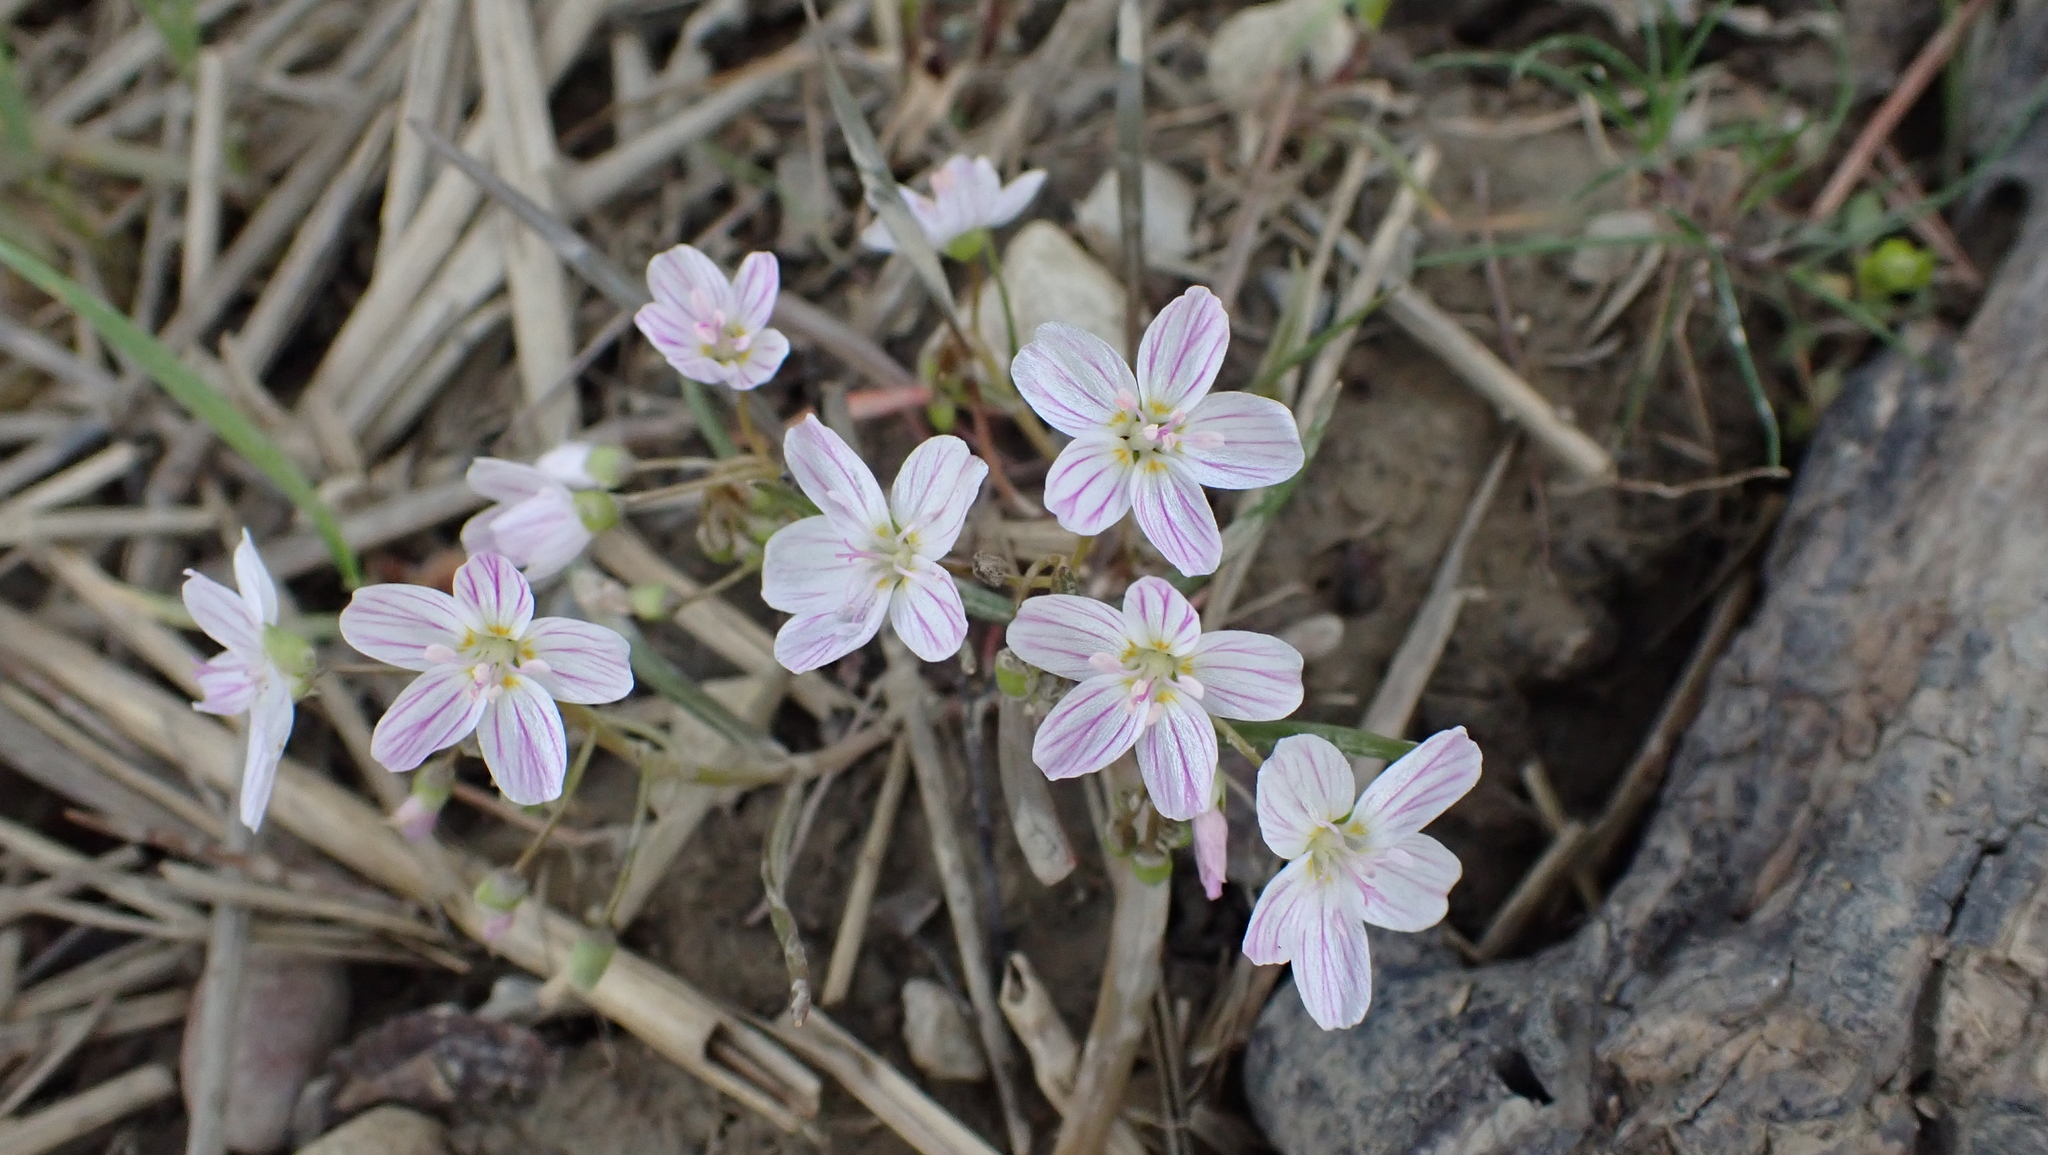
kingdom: Plantae
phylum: Tracheophyta
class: Magnoliopsida
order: Caryophyllales
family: Montiaceae
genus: Claytonia
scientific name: Claytonia virginica
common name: Virginia springbeauty
